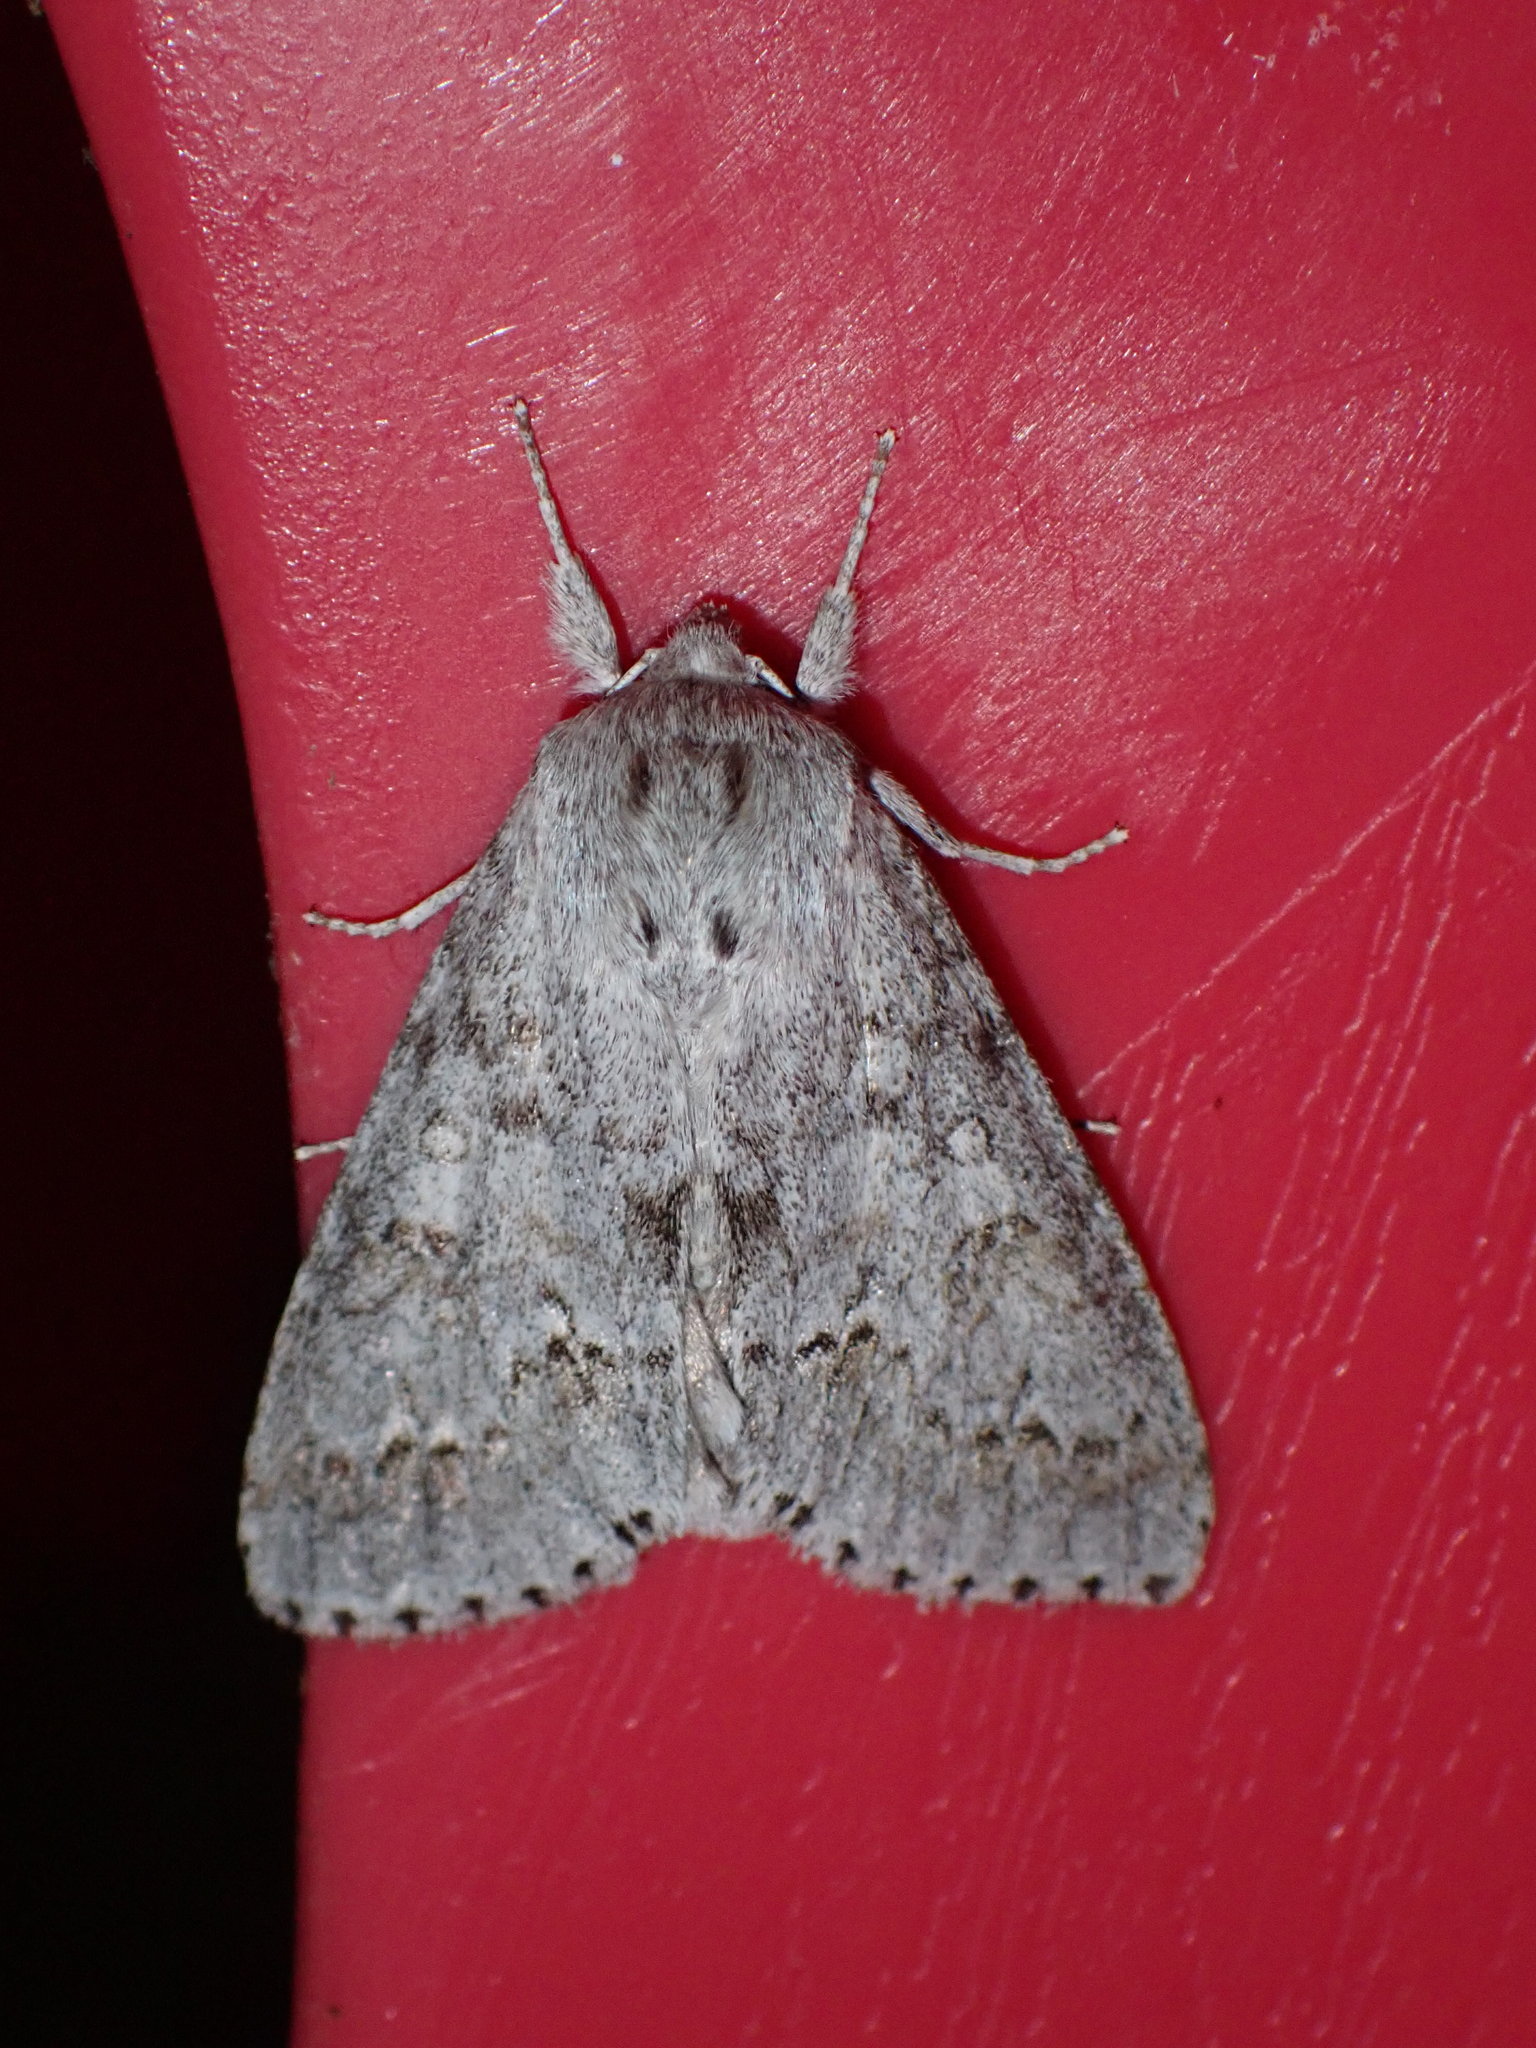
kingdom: Animalia
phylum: Arthropoda
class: Insecta
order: Lepidoptera
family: Noctuidae
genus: Acronicta
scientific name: Acronicta insita
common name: Large gray dagger
